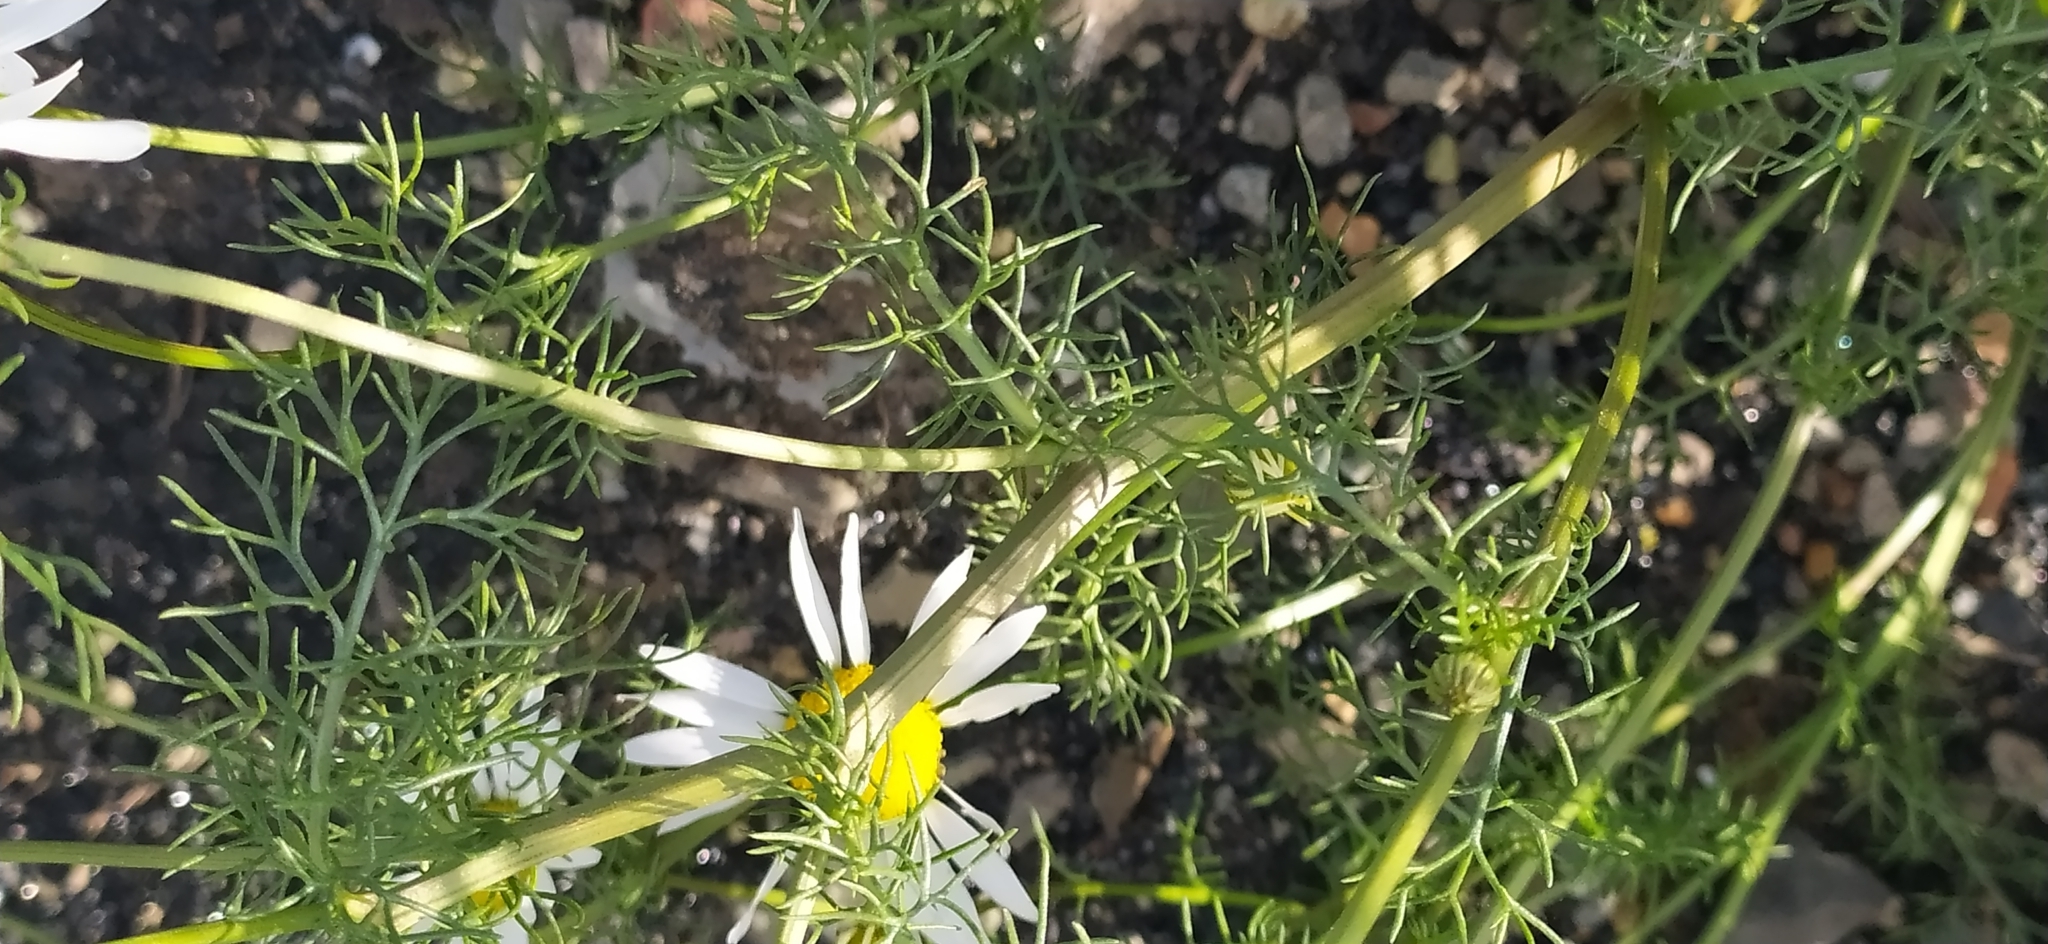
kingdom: Plantae
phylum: Tracheophyta
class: Magnoliopsida
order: Asterales
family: Asteraceae
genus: Tripleurospermum
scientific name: Tripleurospermum inodorum
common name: Scentless mayweed
